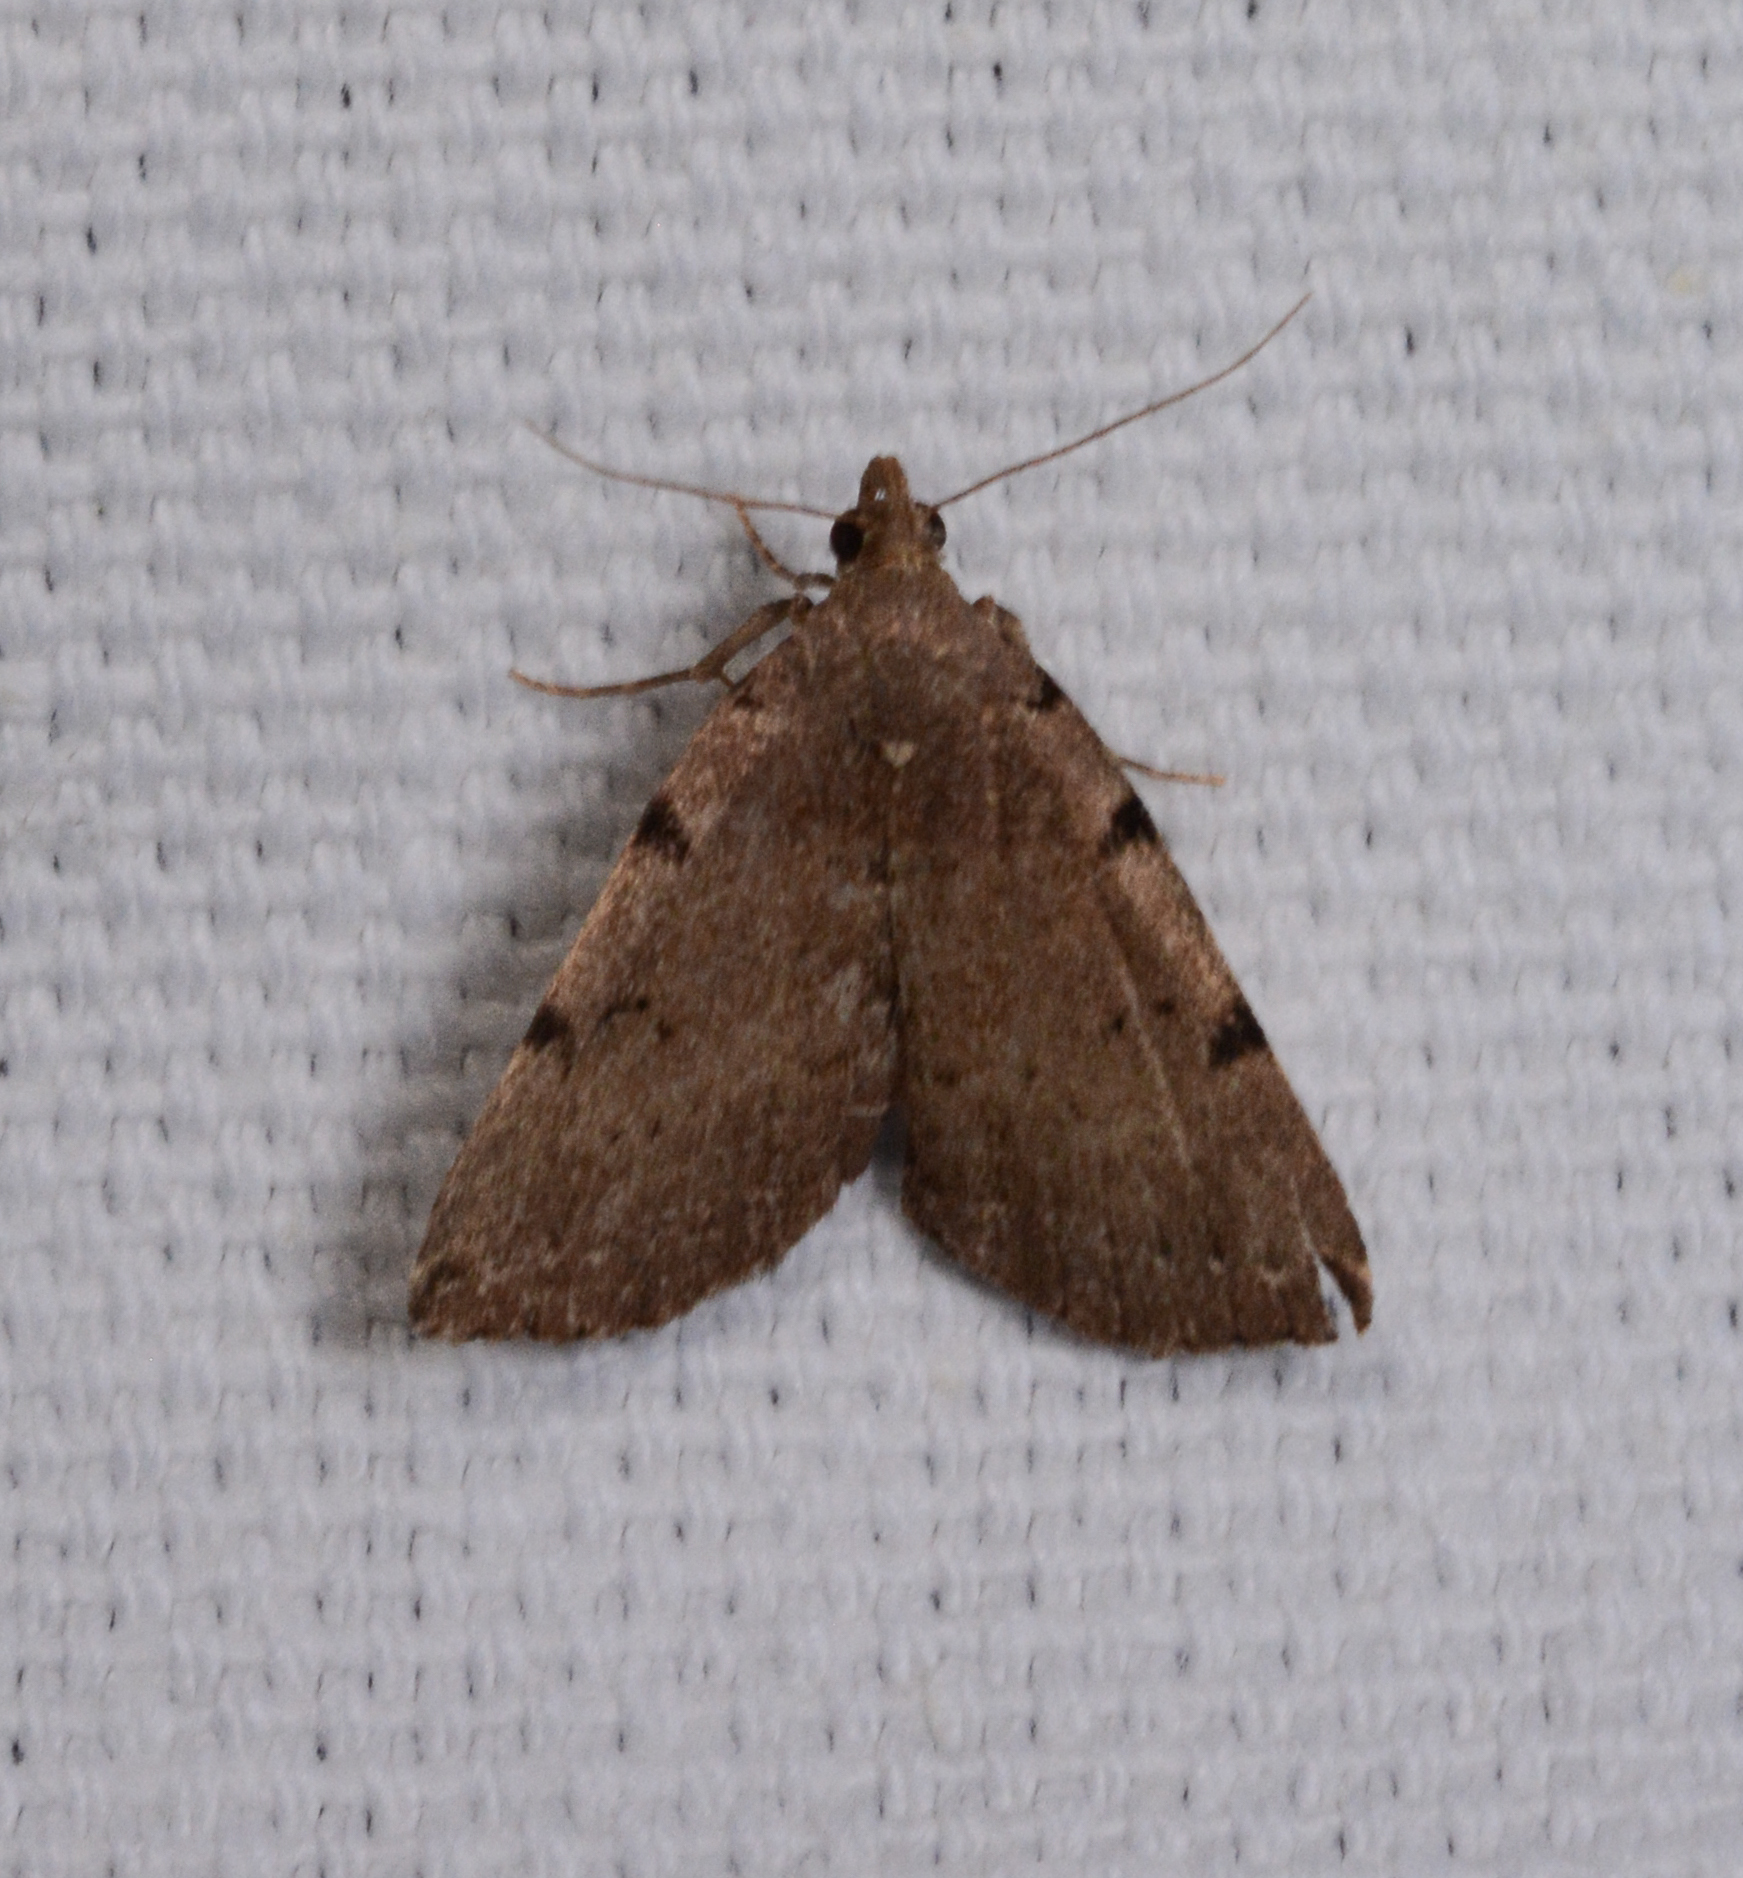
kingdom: Animalia
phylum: Arthropoda
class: Insecta
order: Lepidoptera
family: Erebidae
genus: Zanclognatha
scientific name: Zanclognatha lituralis
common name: Lettered fan-foot
